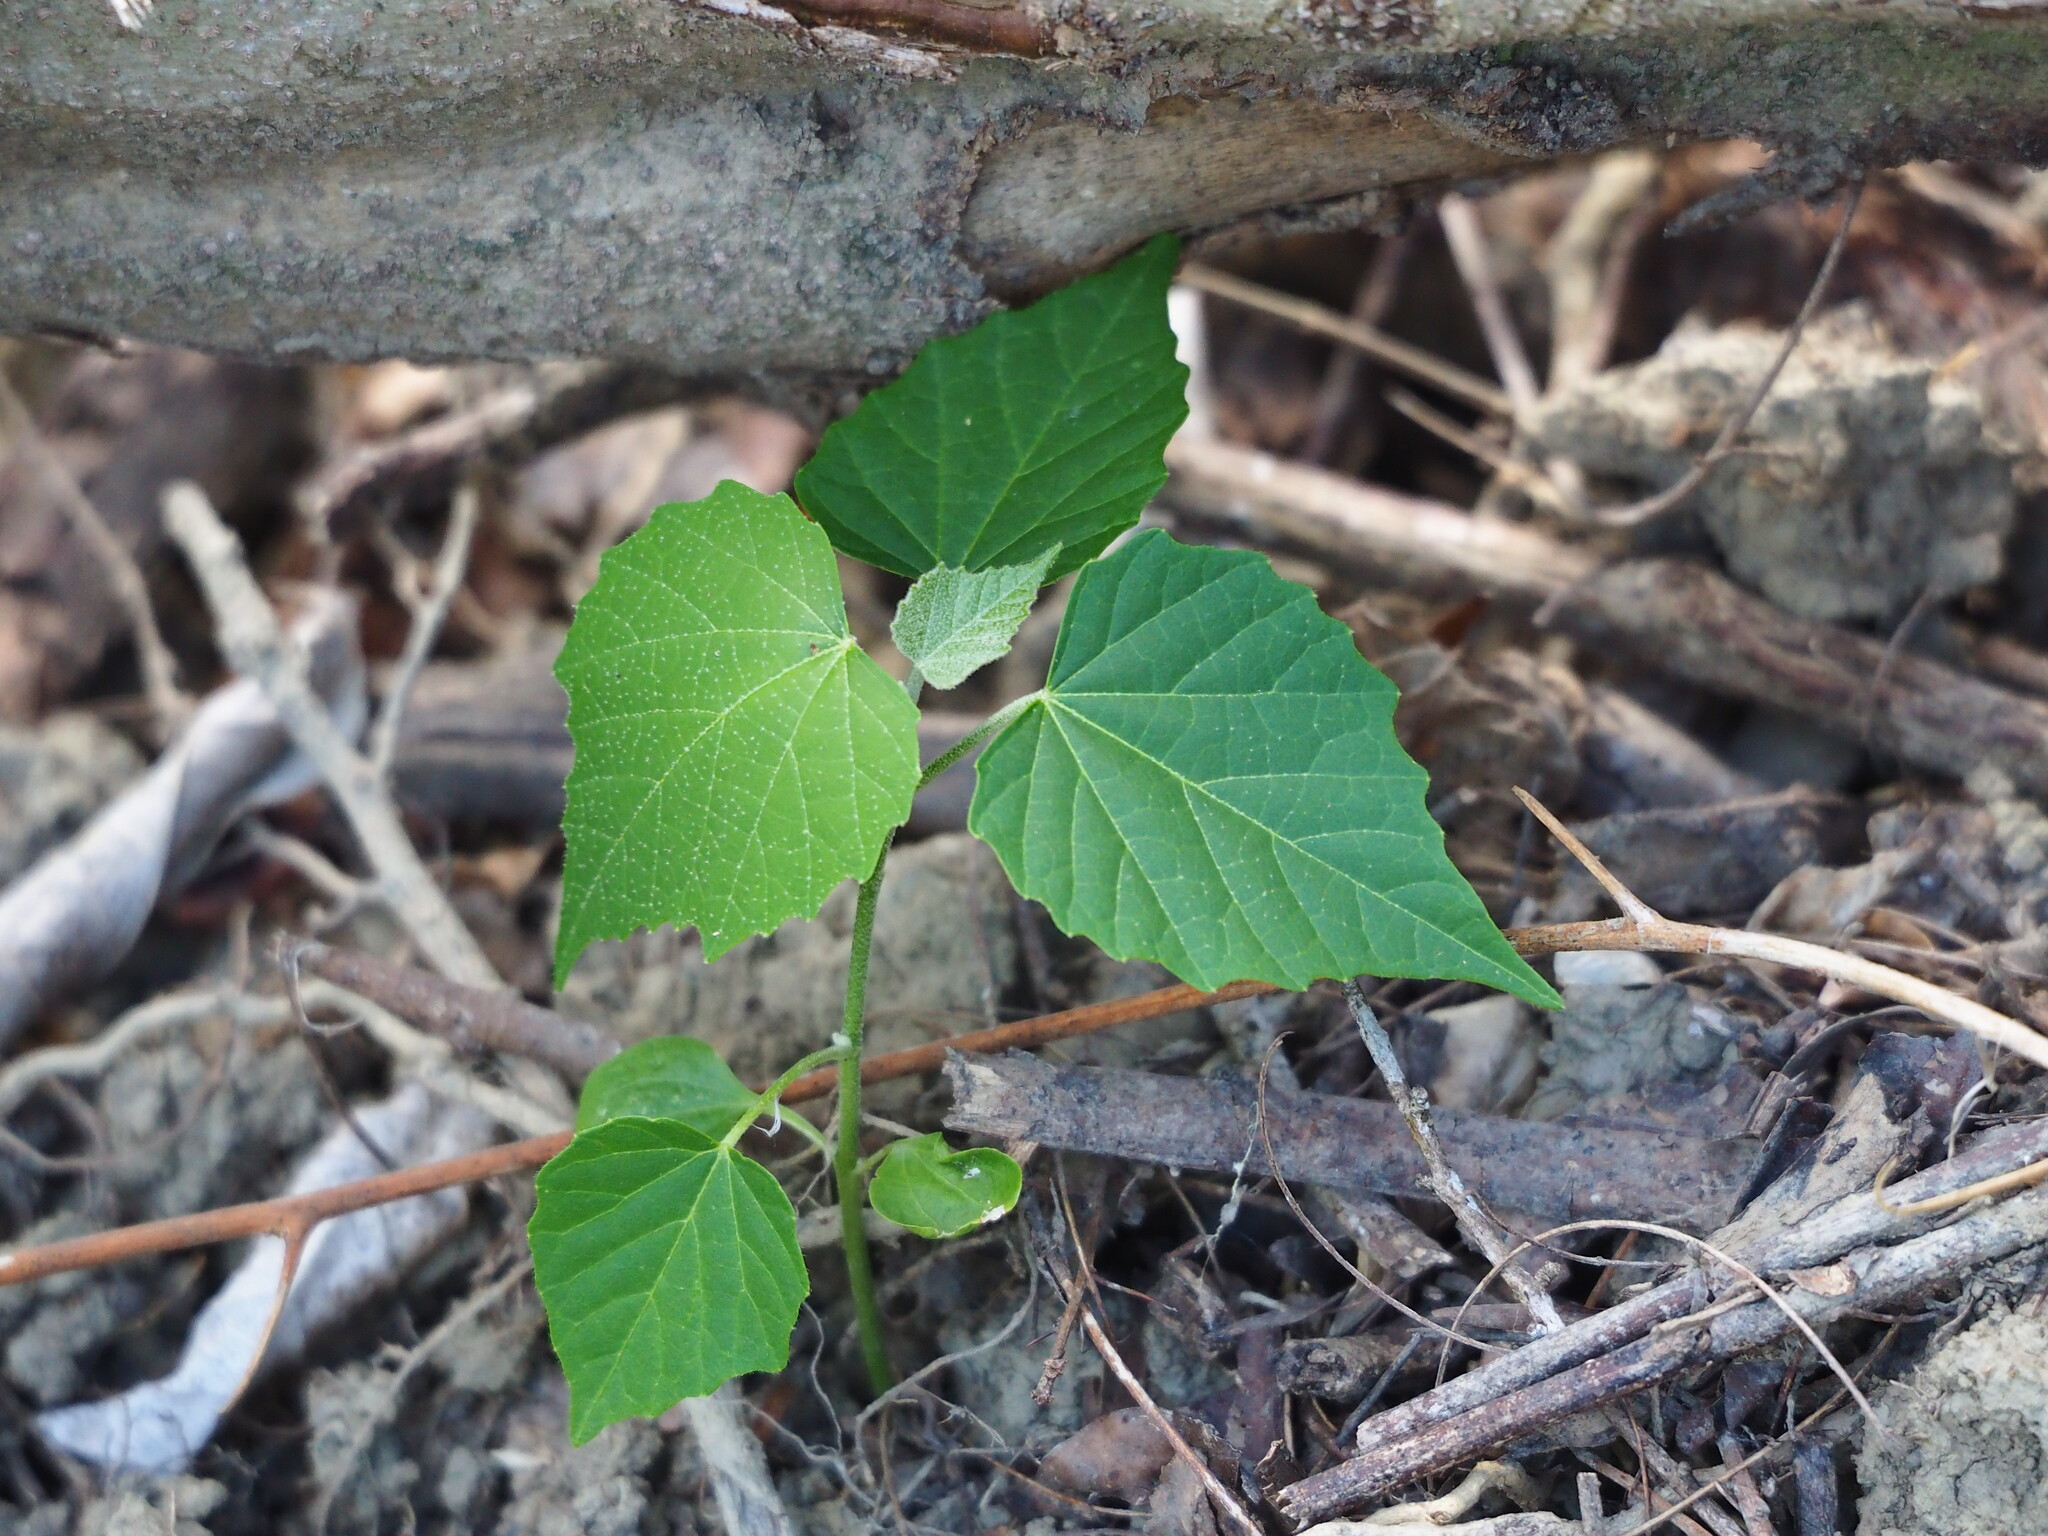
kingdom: Plantae
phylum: Tracheophyta
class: Magnoliopsida
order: Malpighiales
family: Euphorbiaceae
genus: Melanolepis
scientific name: Melanolepis multiglandulosa
